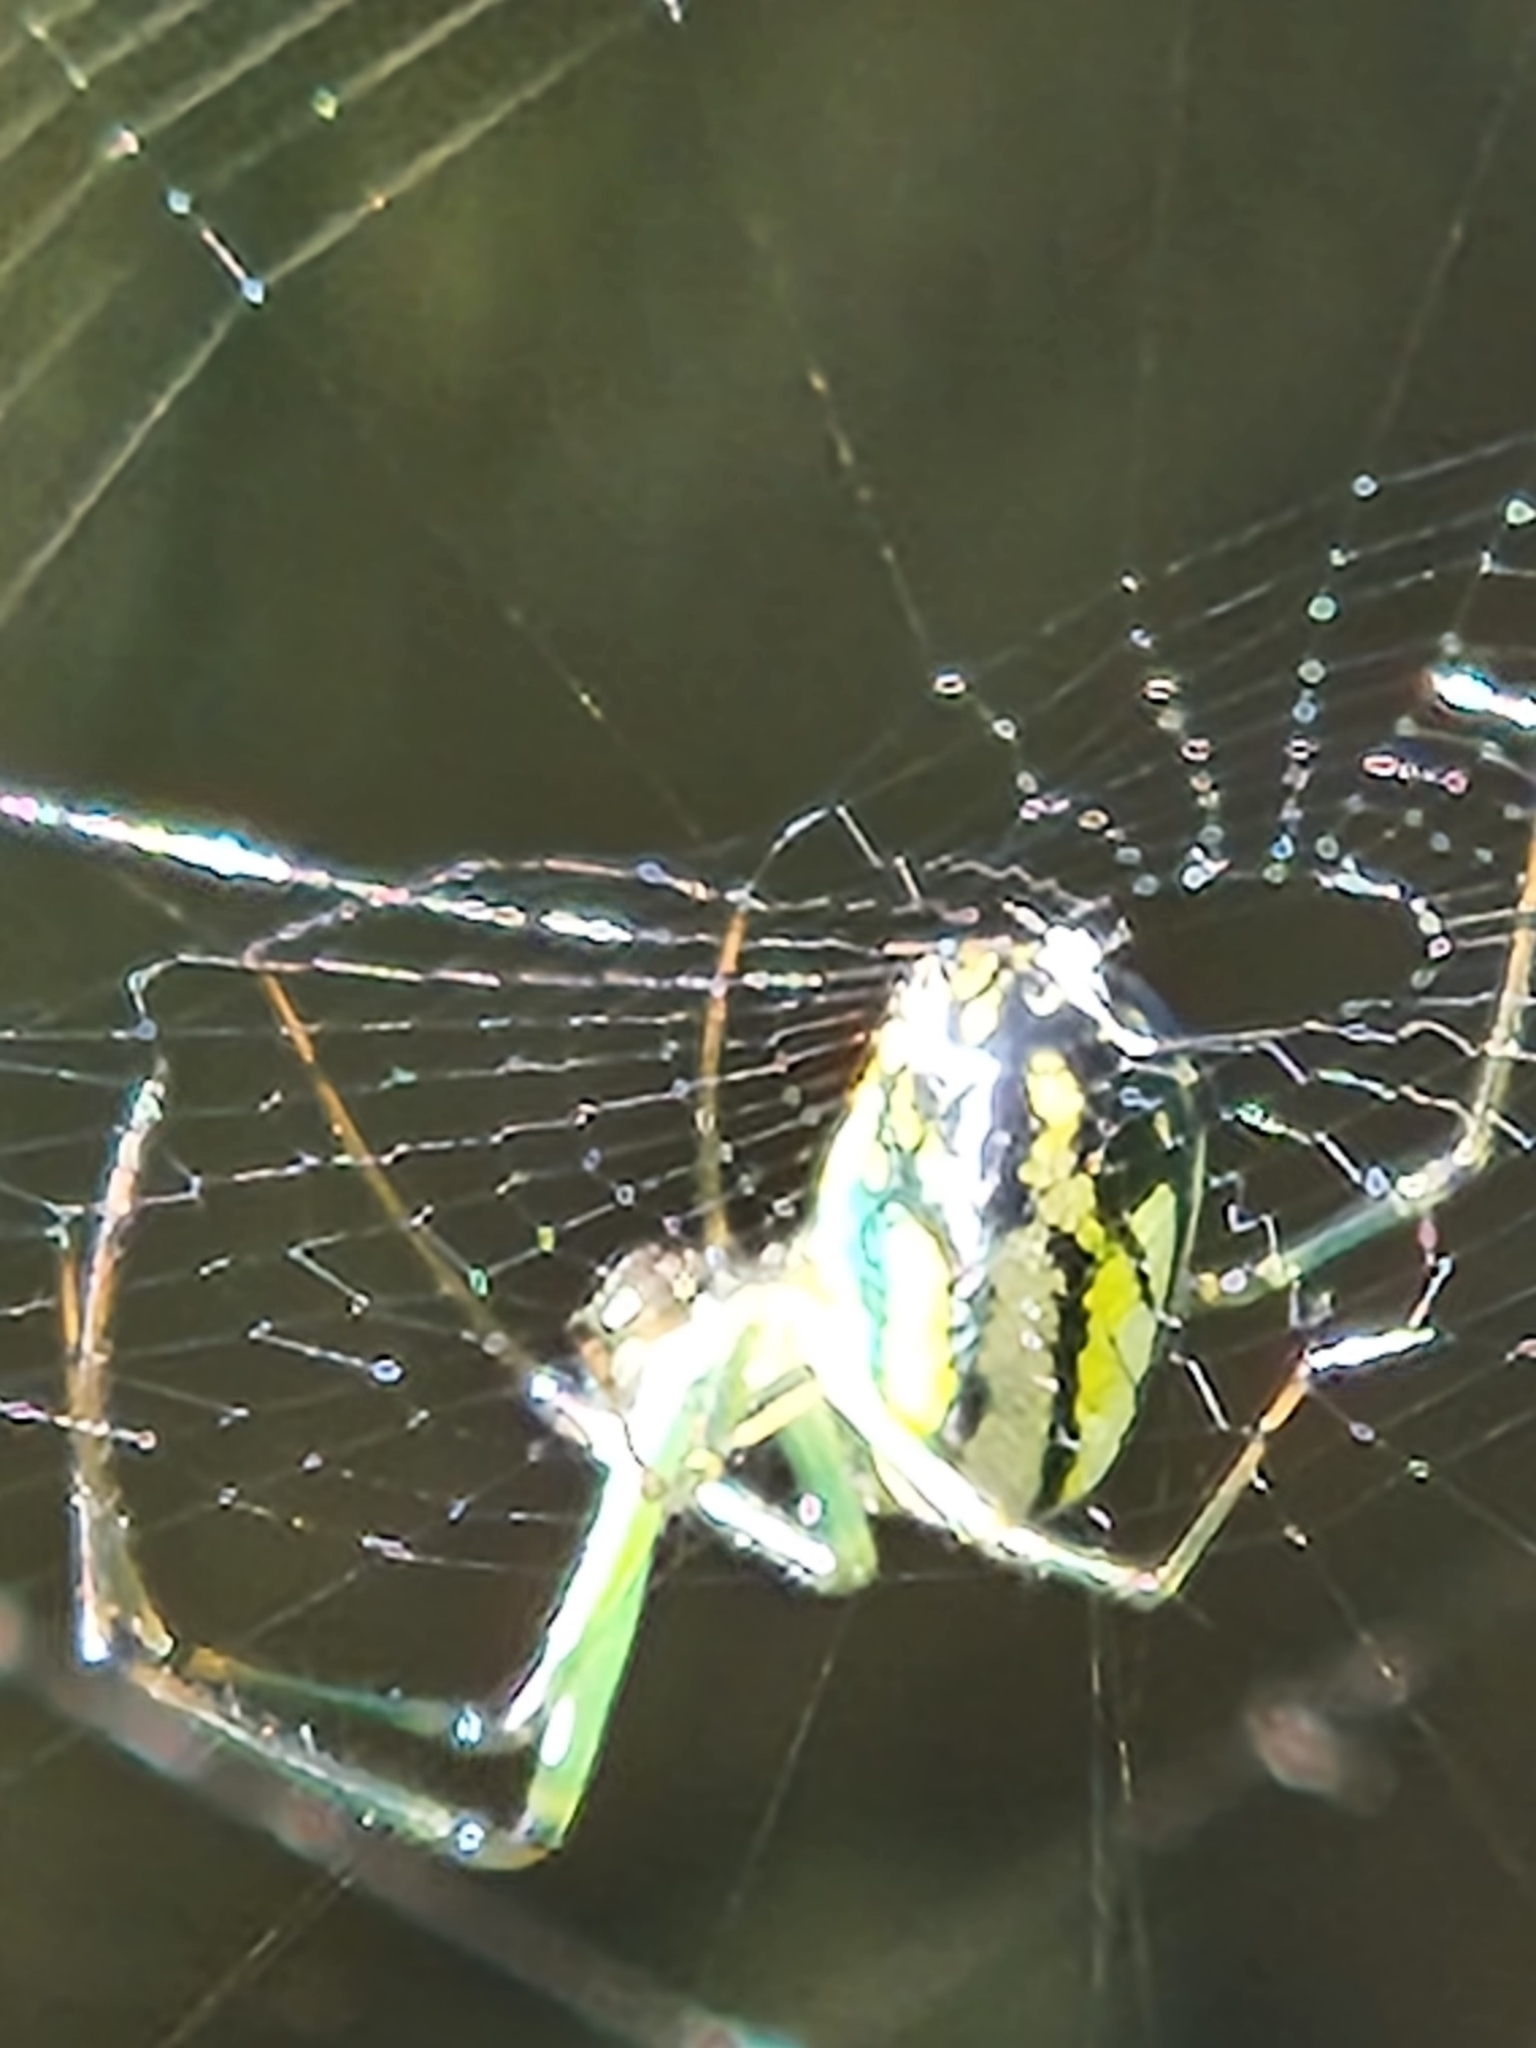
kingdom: Animalia
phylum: Arthropoda
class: Arachnida
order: Araneae
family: Tetragnathidae
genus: Leucauge
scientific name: Leucauge venusta
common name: Longjawed orb weavers
